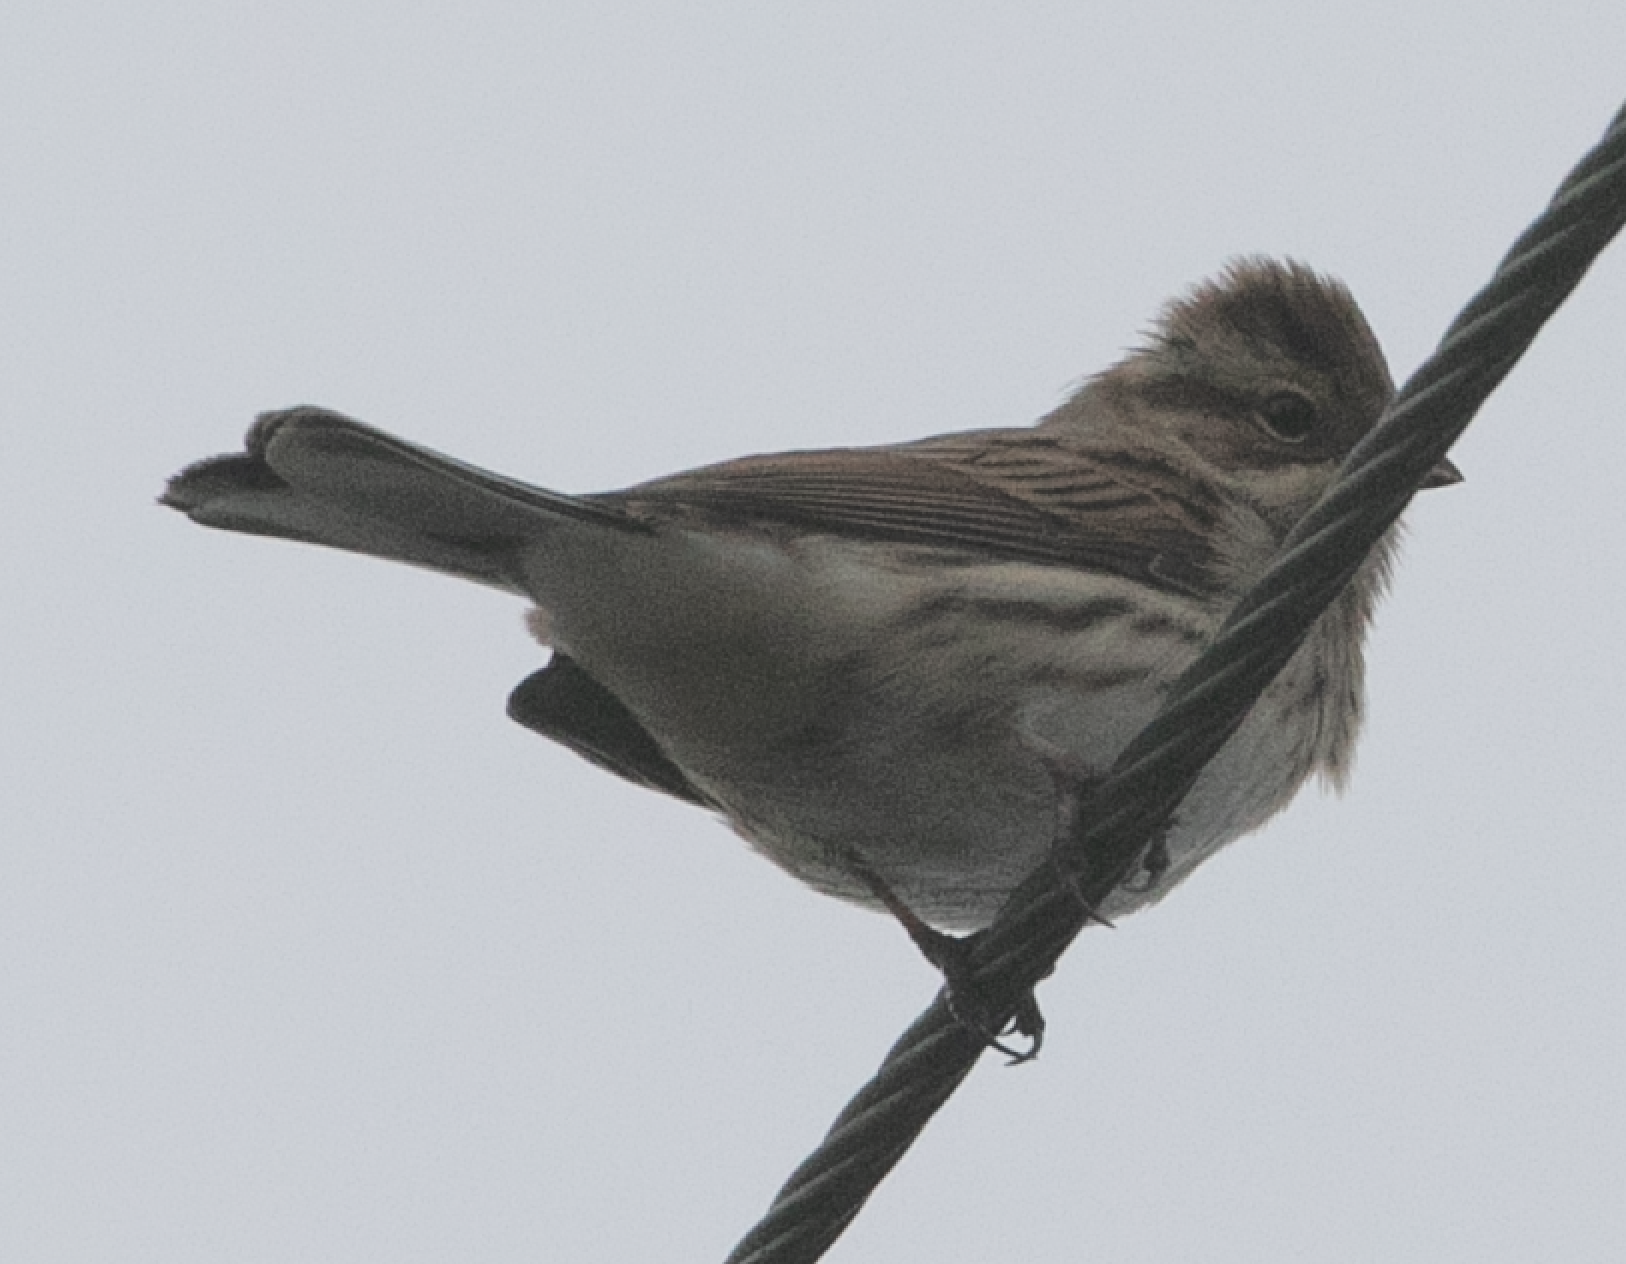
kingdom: Animalia
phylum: Chordata
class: Aves
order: Passeriformes
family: Emberizidae
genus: Emberiza
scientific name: Emberiza schoeniclus
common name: Reed bunting
